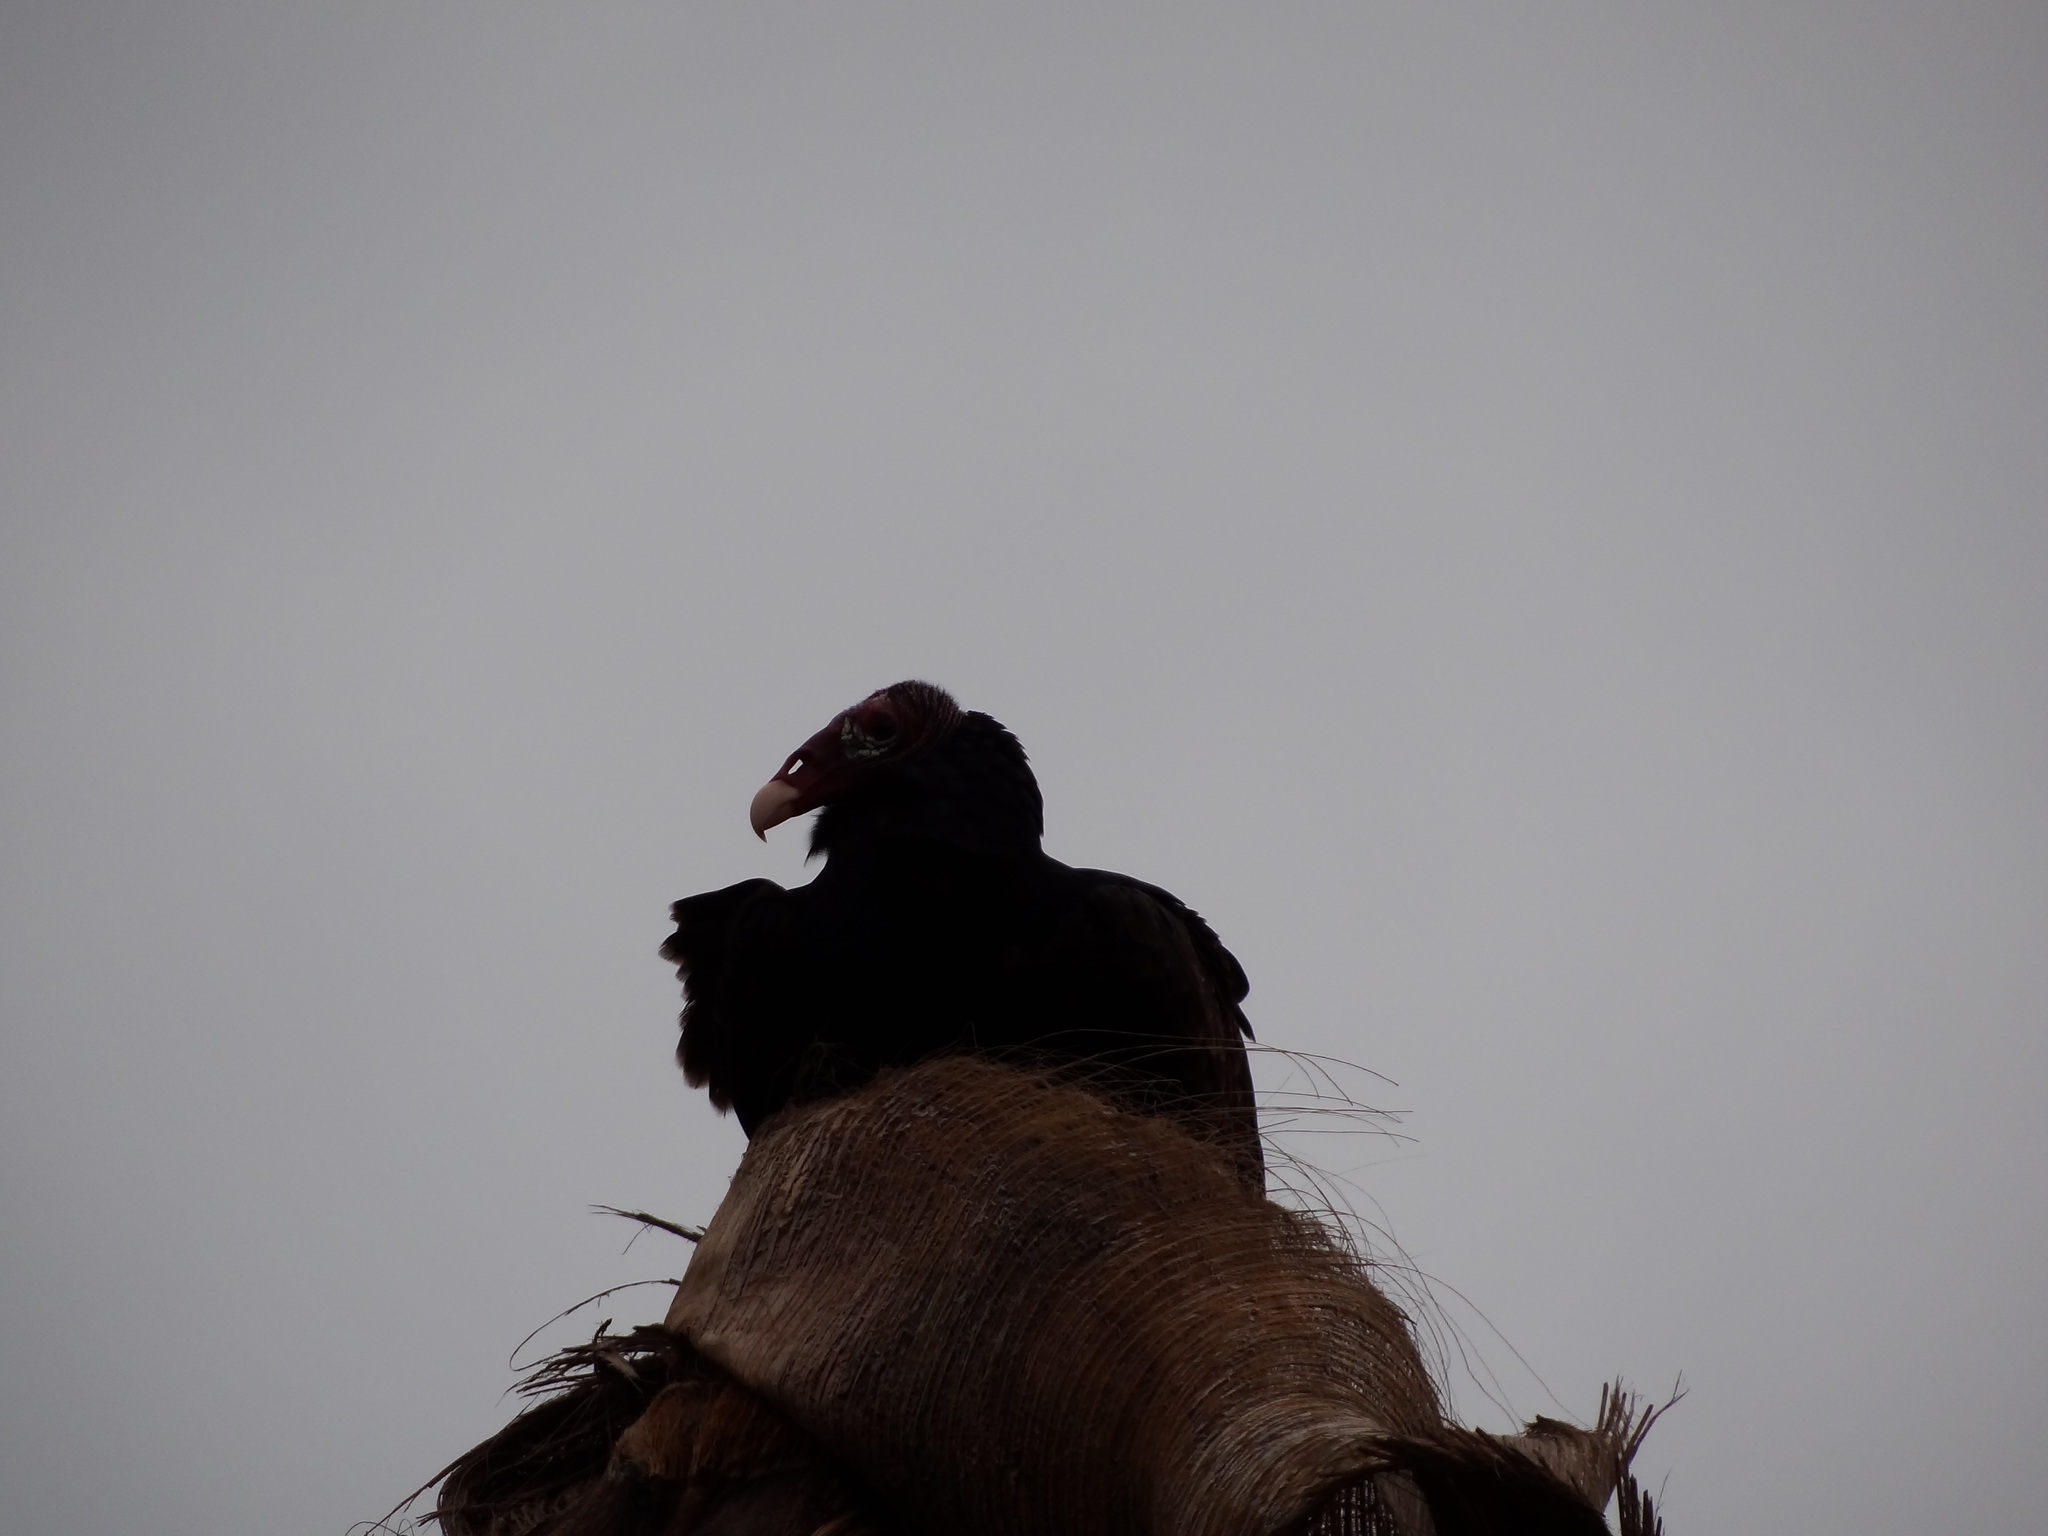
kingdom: Animalia
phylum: Chordata
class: Aves
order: Accipitriformes
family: Cathartidae
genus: Cathartes
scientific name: Cathartes aura
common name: Turkey vulture
